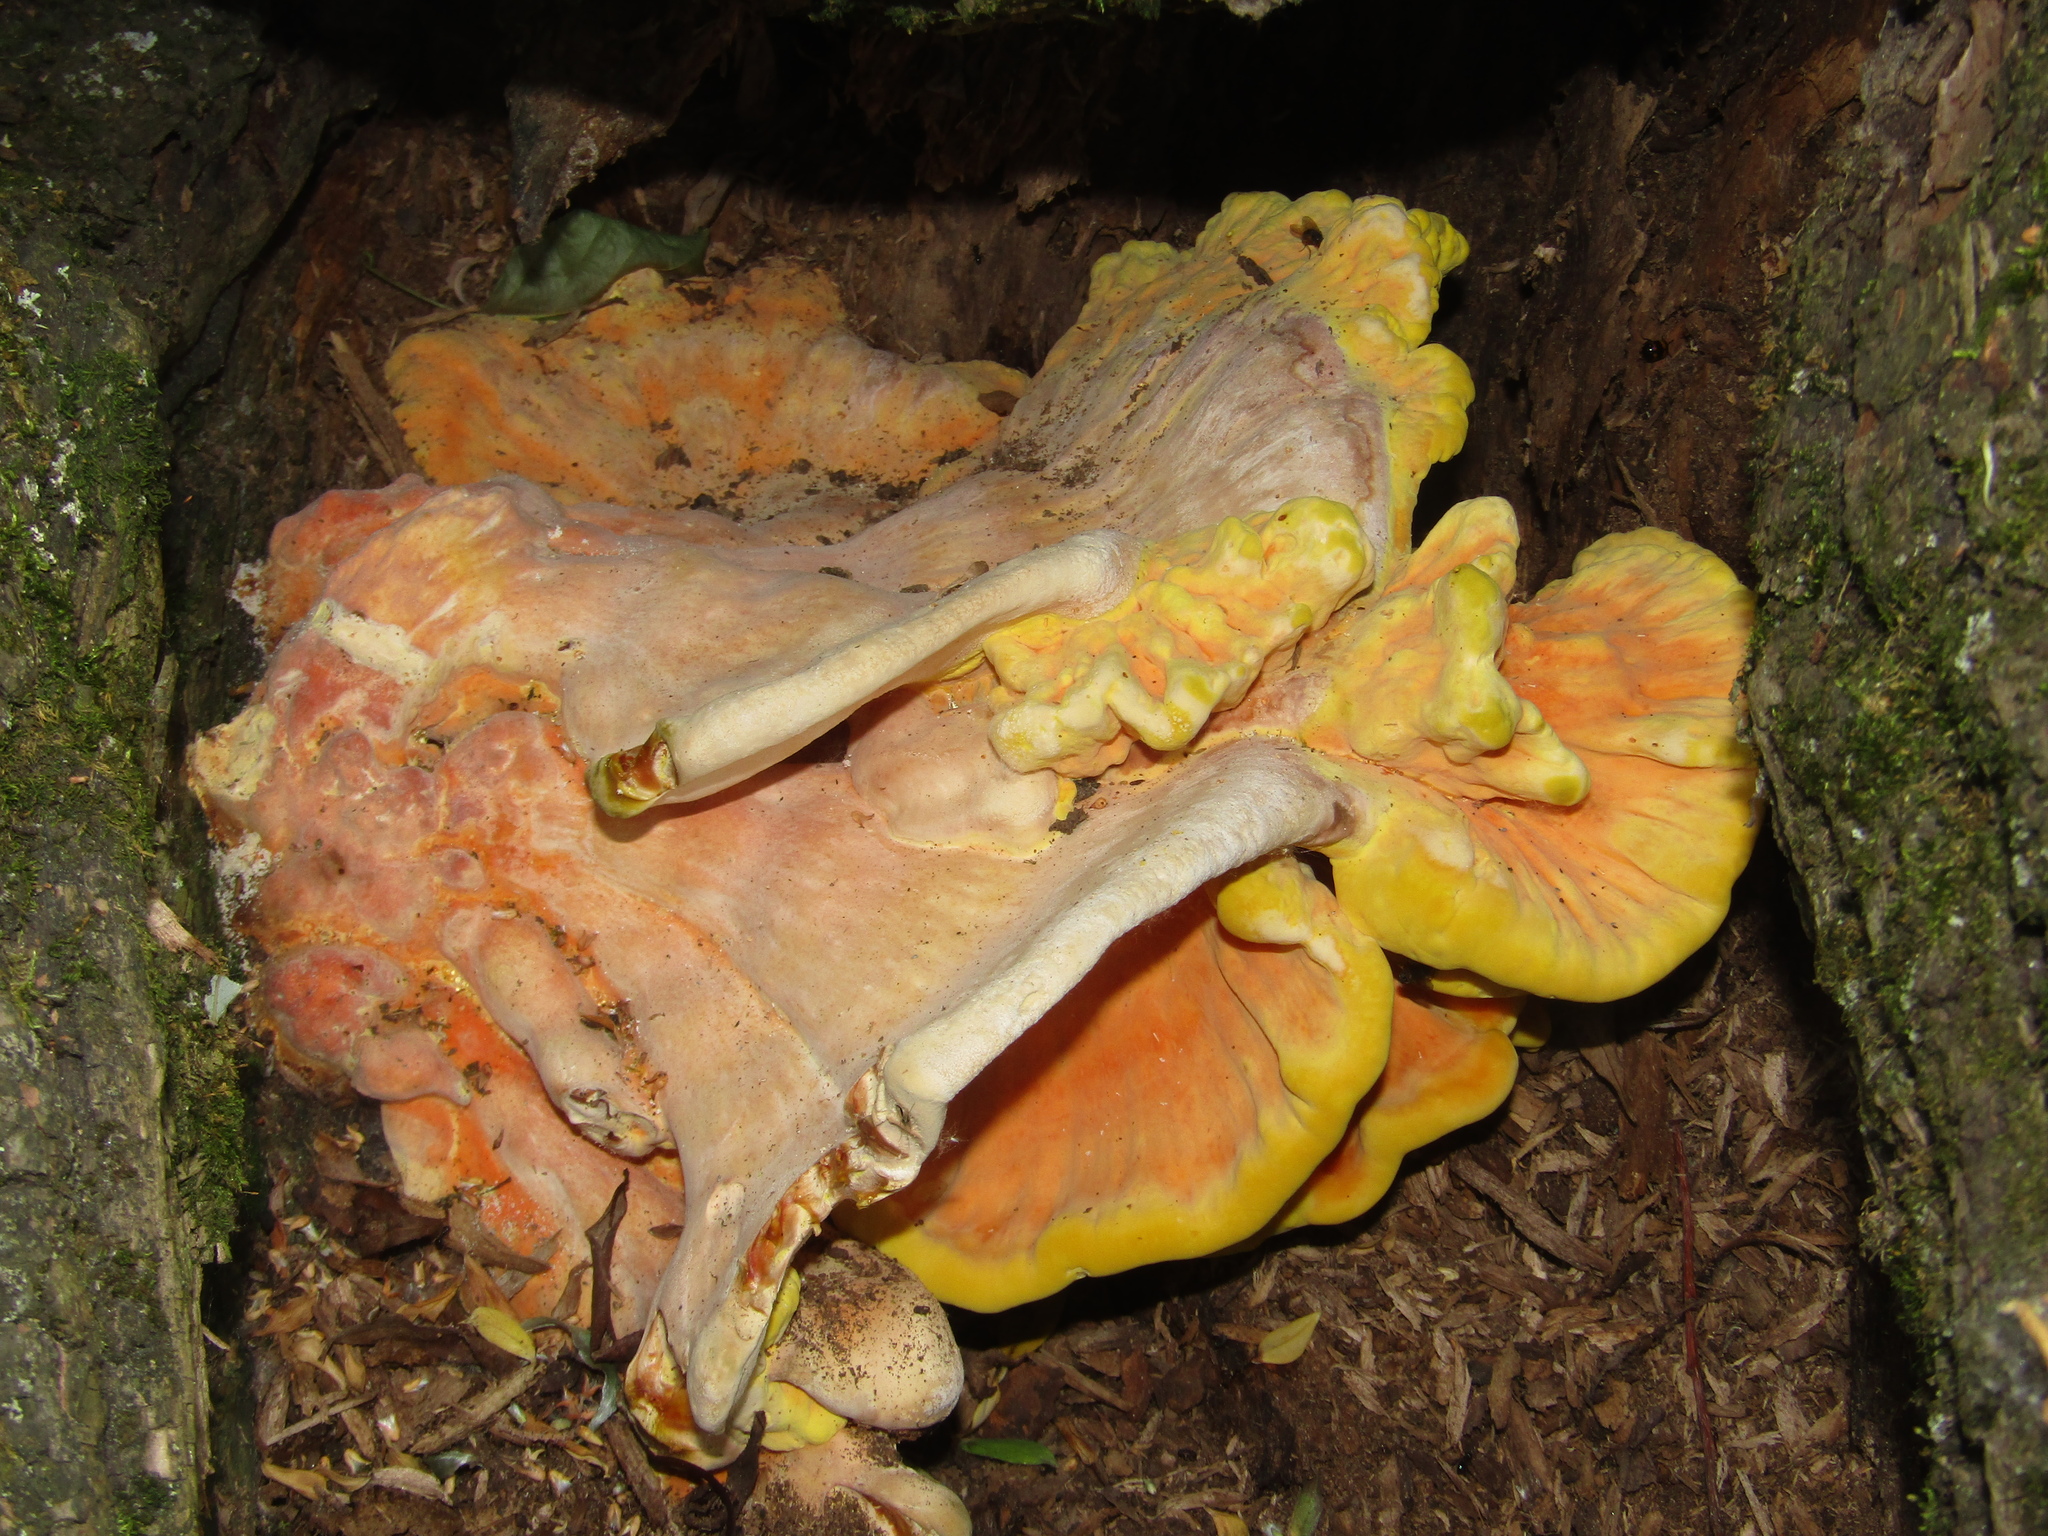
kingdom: Fungi
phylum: Basidiomycota
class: Agaricomycetes
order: Polyporales
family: Laetiporaceae
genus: Laetiporus
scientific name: Laetiporus sulphureus
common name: Chicken of the woods
